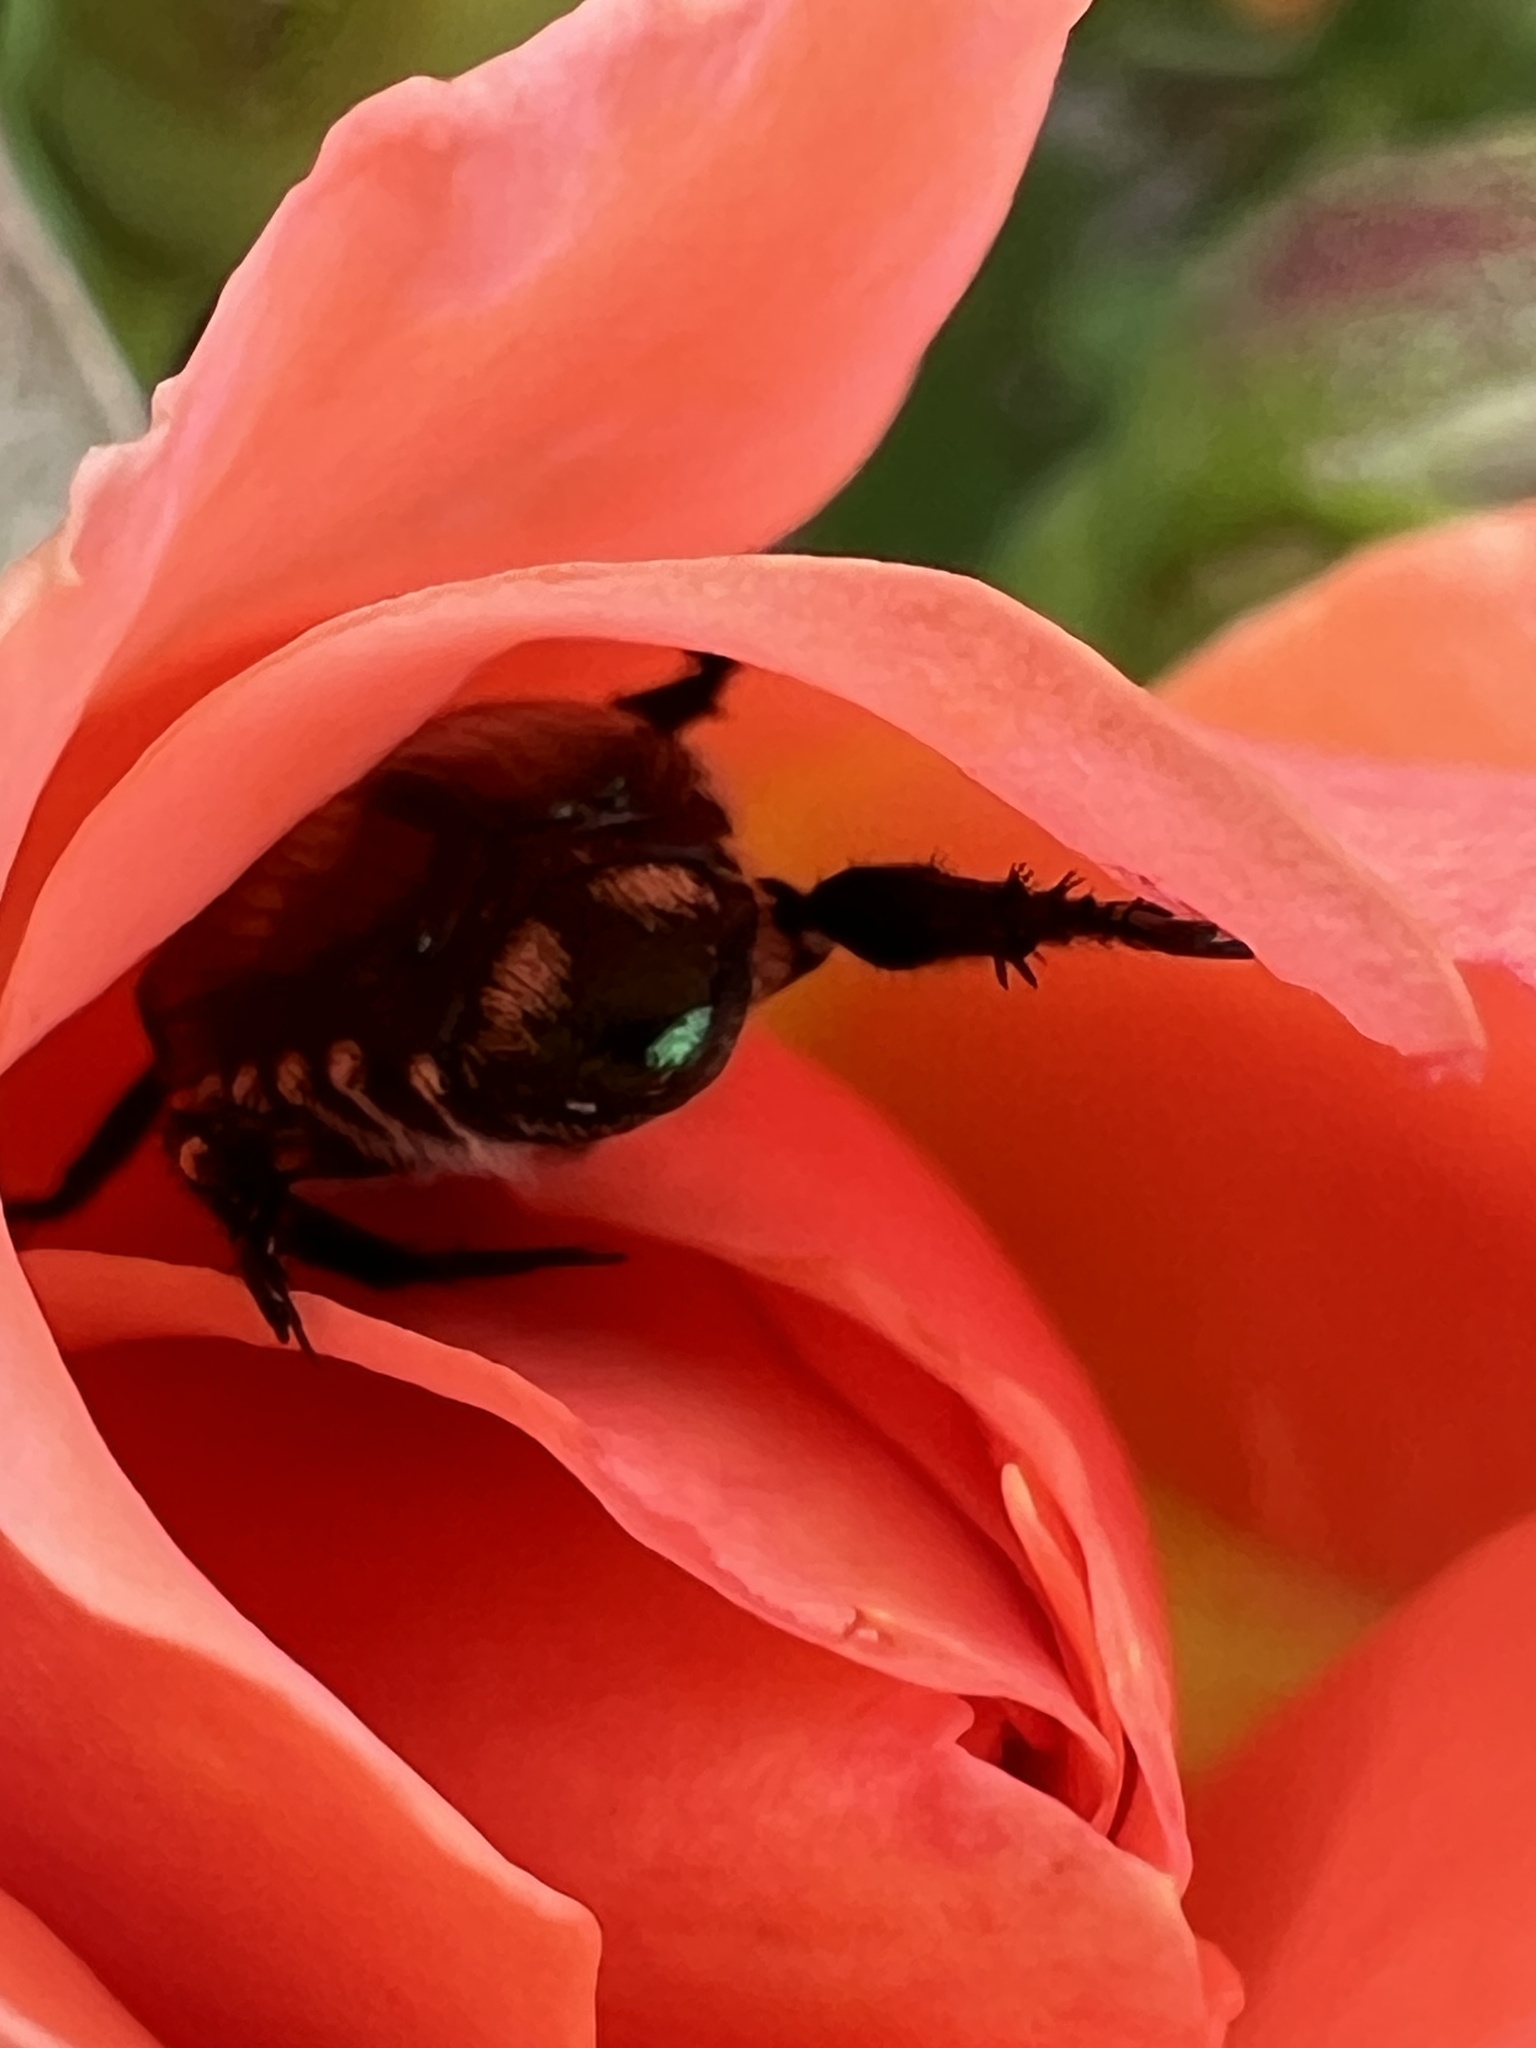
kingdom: Animalia
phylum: Arthropoda
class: Insecta
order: Coleoptera
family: Scarabaeidae
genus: Popillia
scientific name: Popillia japonica
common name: Japanese beetle
